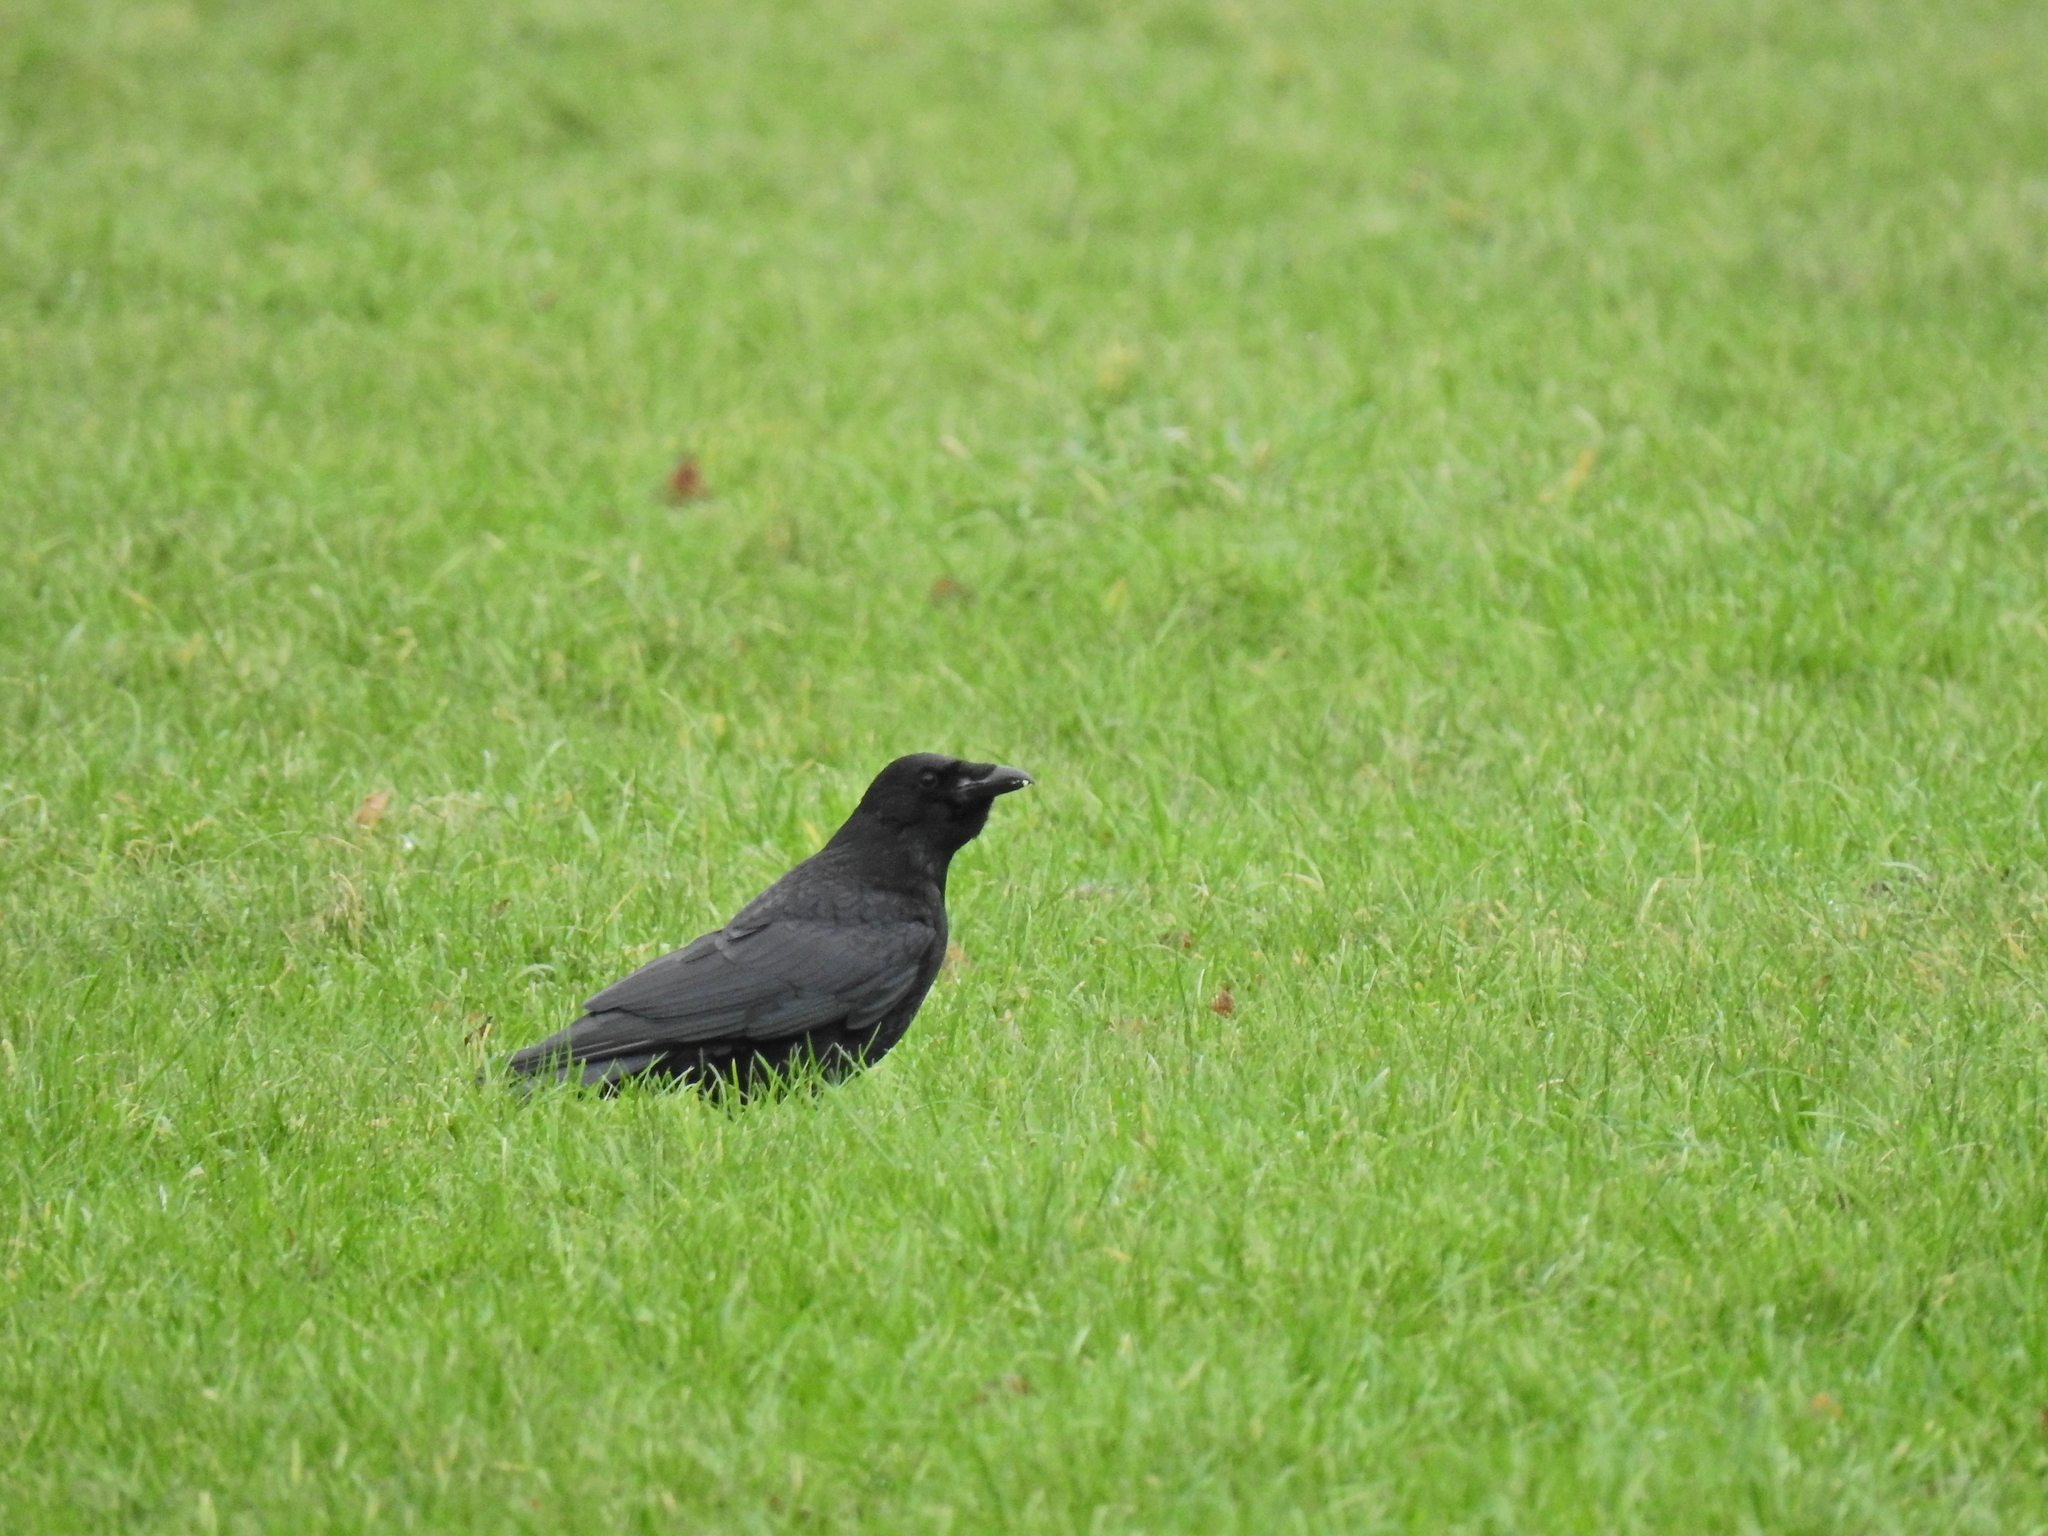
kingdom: Animalia
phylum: Chordata
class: Aves
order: Passeriformes
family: Corvidae
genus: Corvus
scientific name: Corvus corone
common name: Carrion crow
